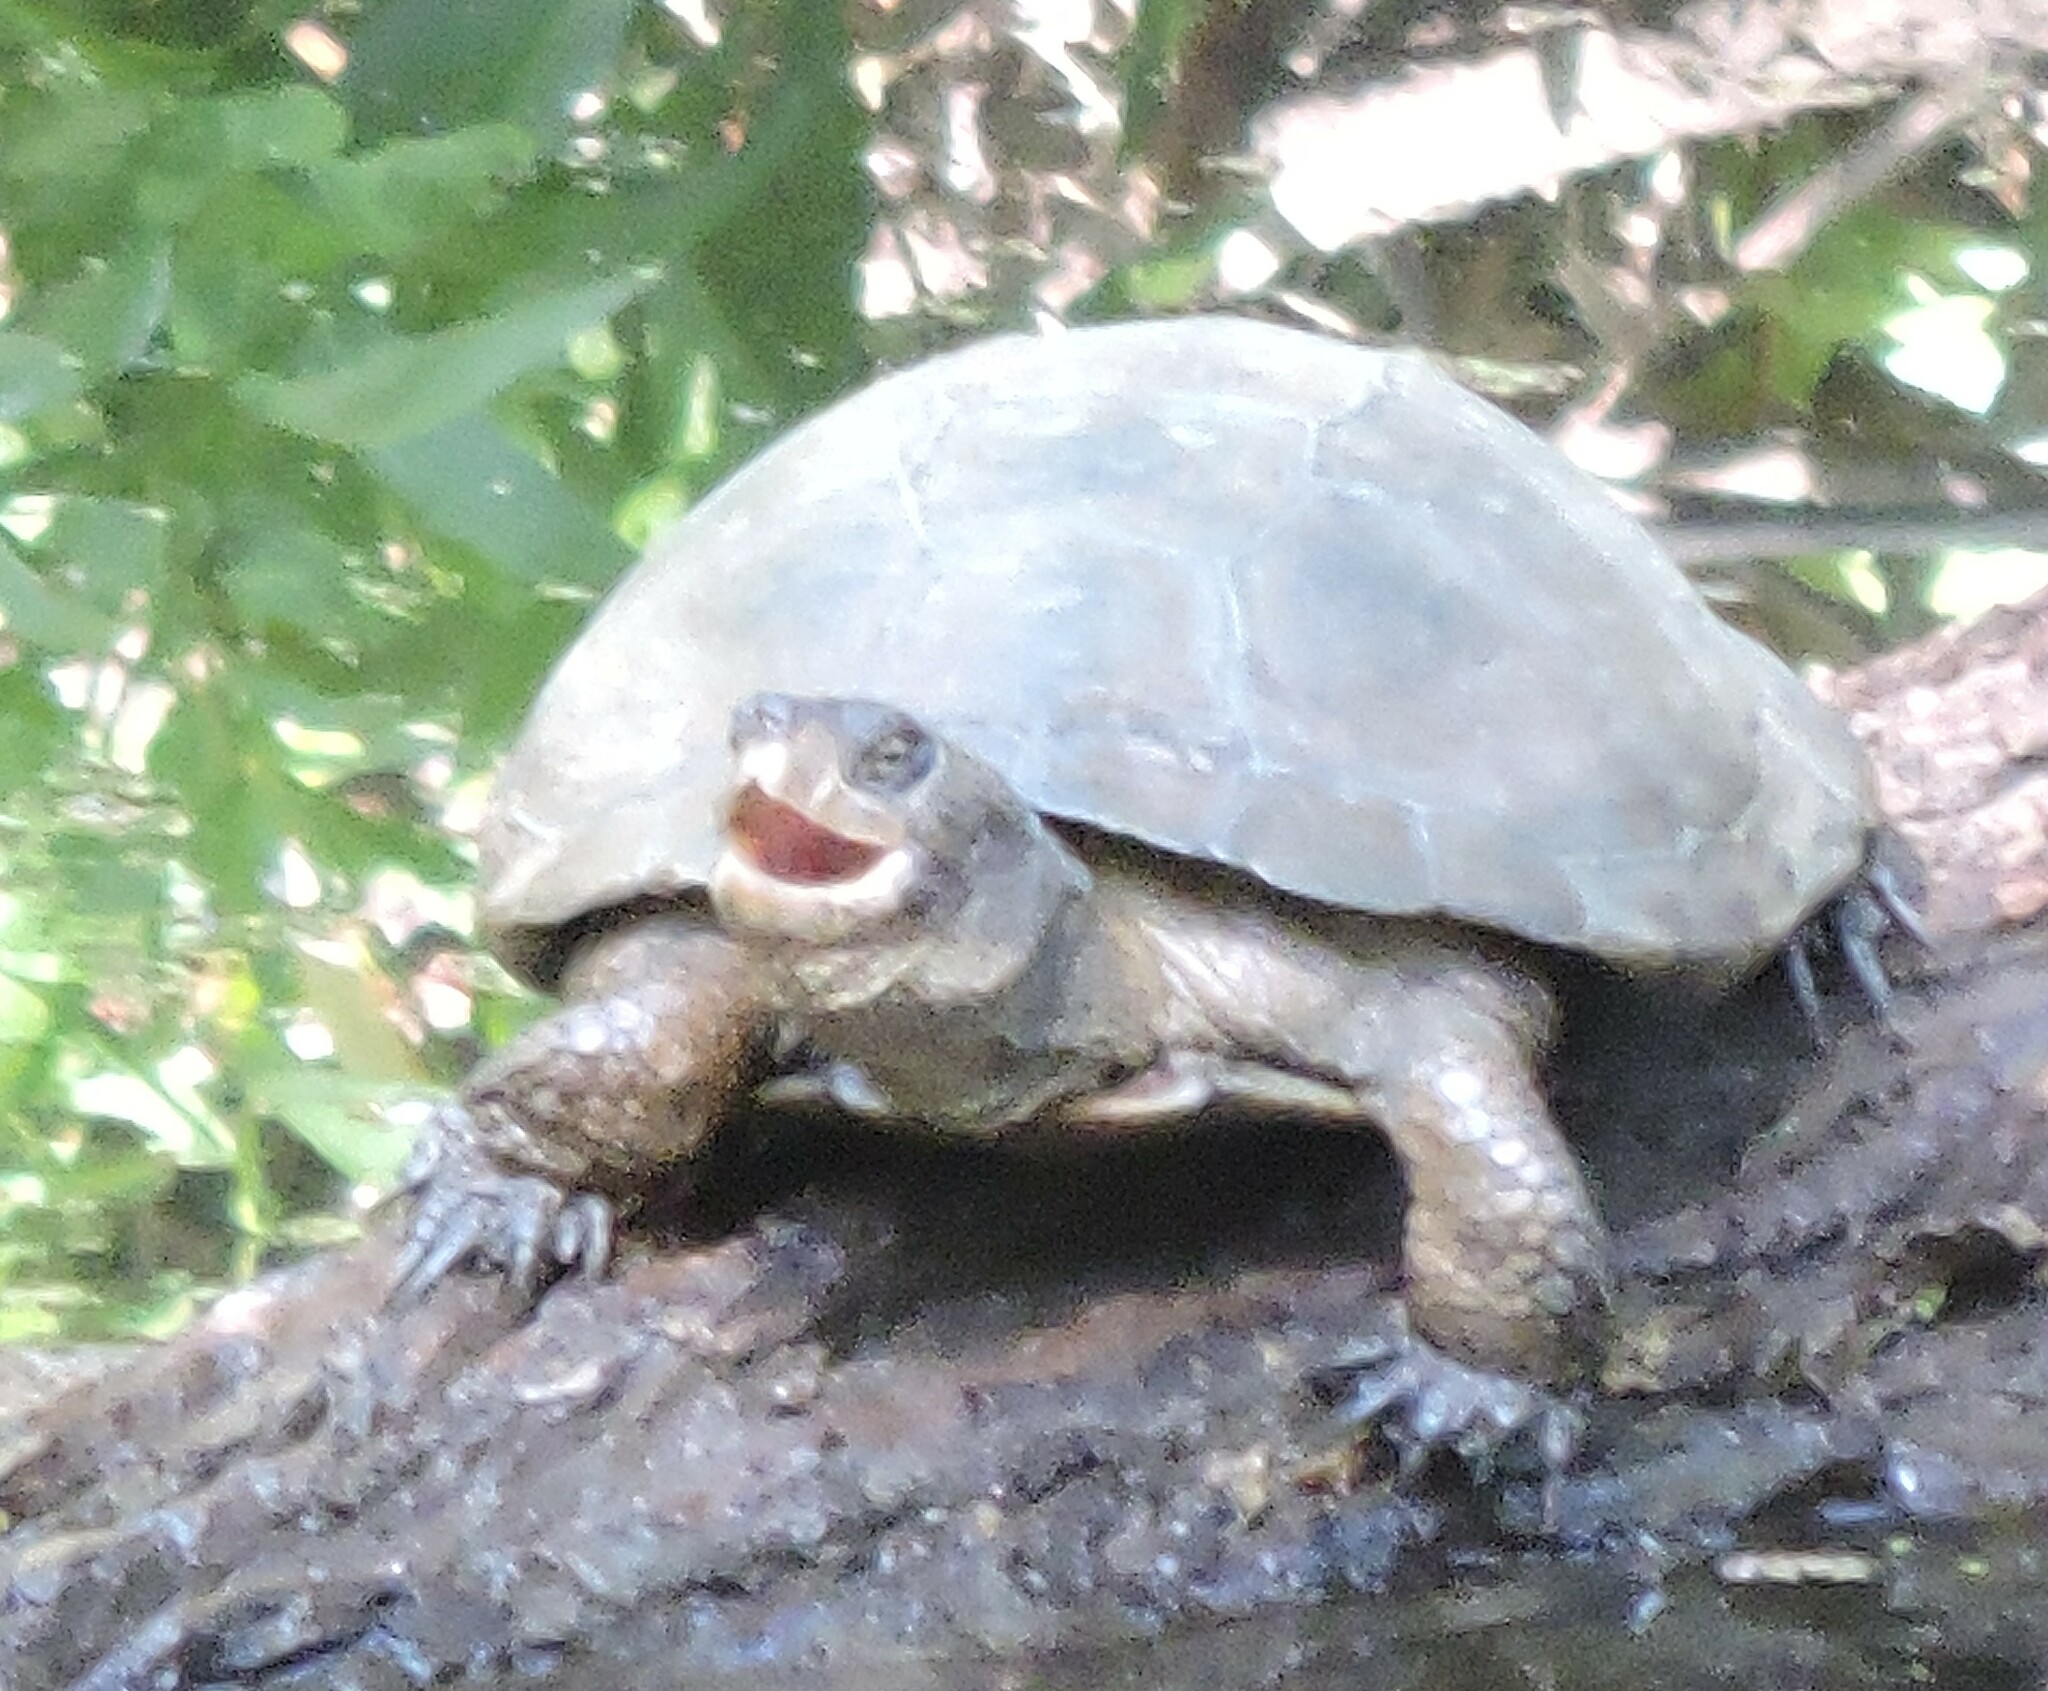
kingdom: Animalia
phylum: Chordata
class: Testudines
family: Emydidae
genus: Actinemys
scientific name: Actinemys marmorata
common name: Western pond turtle
